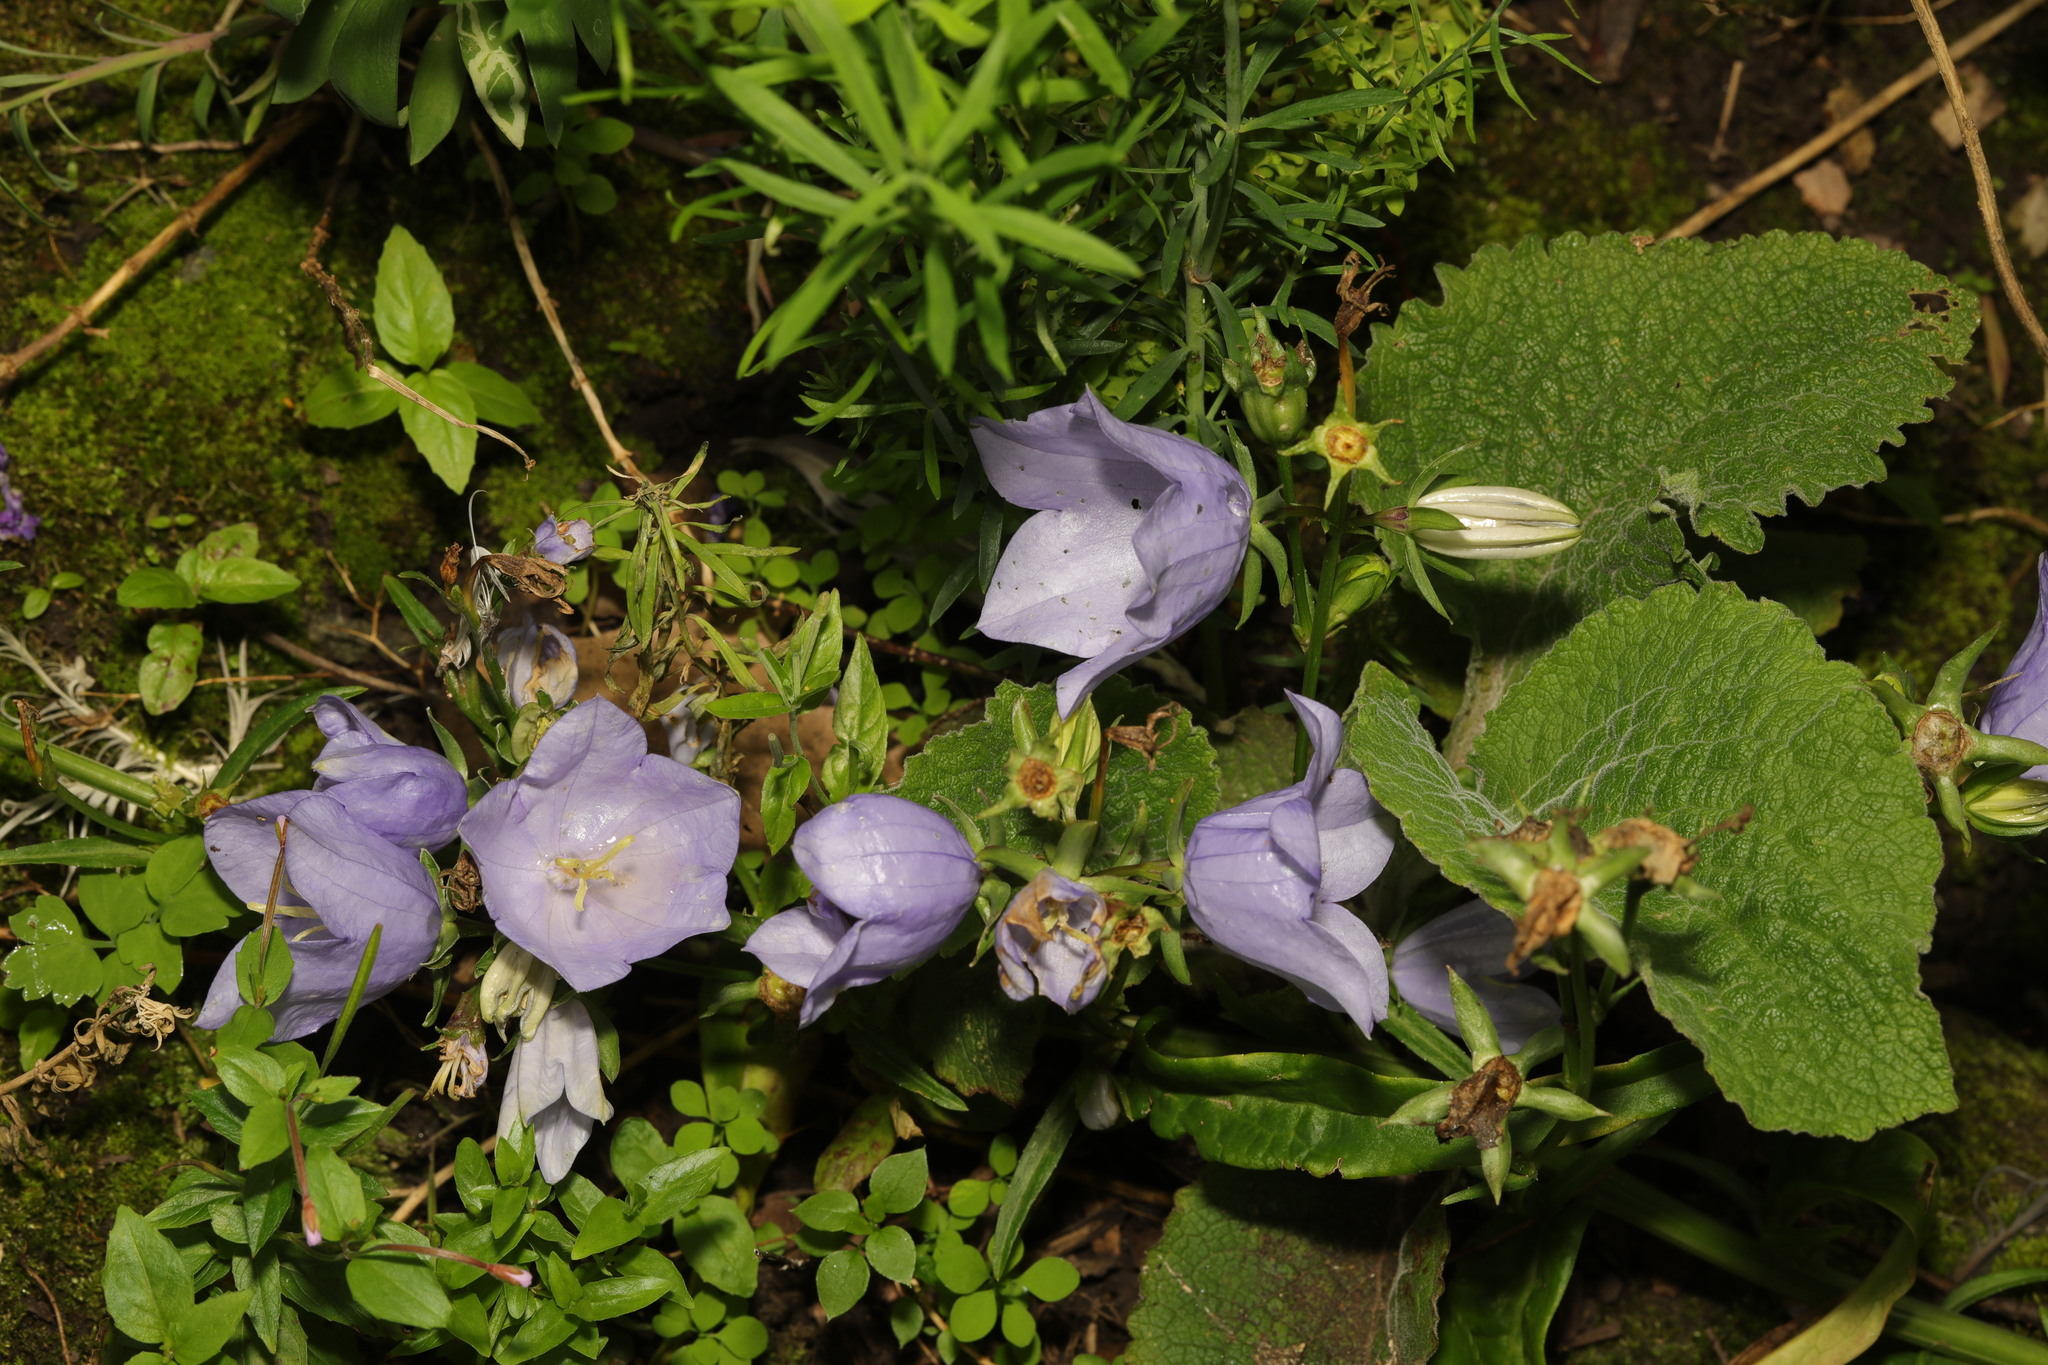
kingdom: Plantae
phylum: Tracheophyta
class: Magnoliopsida
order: Asterales
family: Campanulaceae
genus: Campanula
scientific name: Campanula trachelium
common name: Nettle-leaved bellflower
